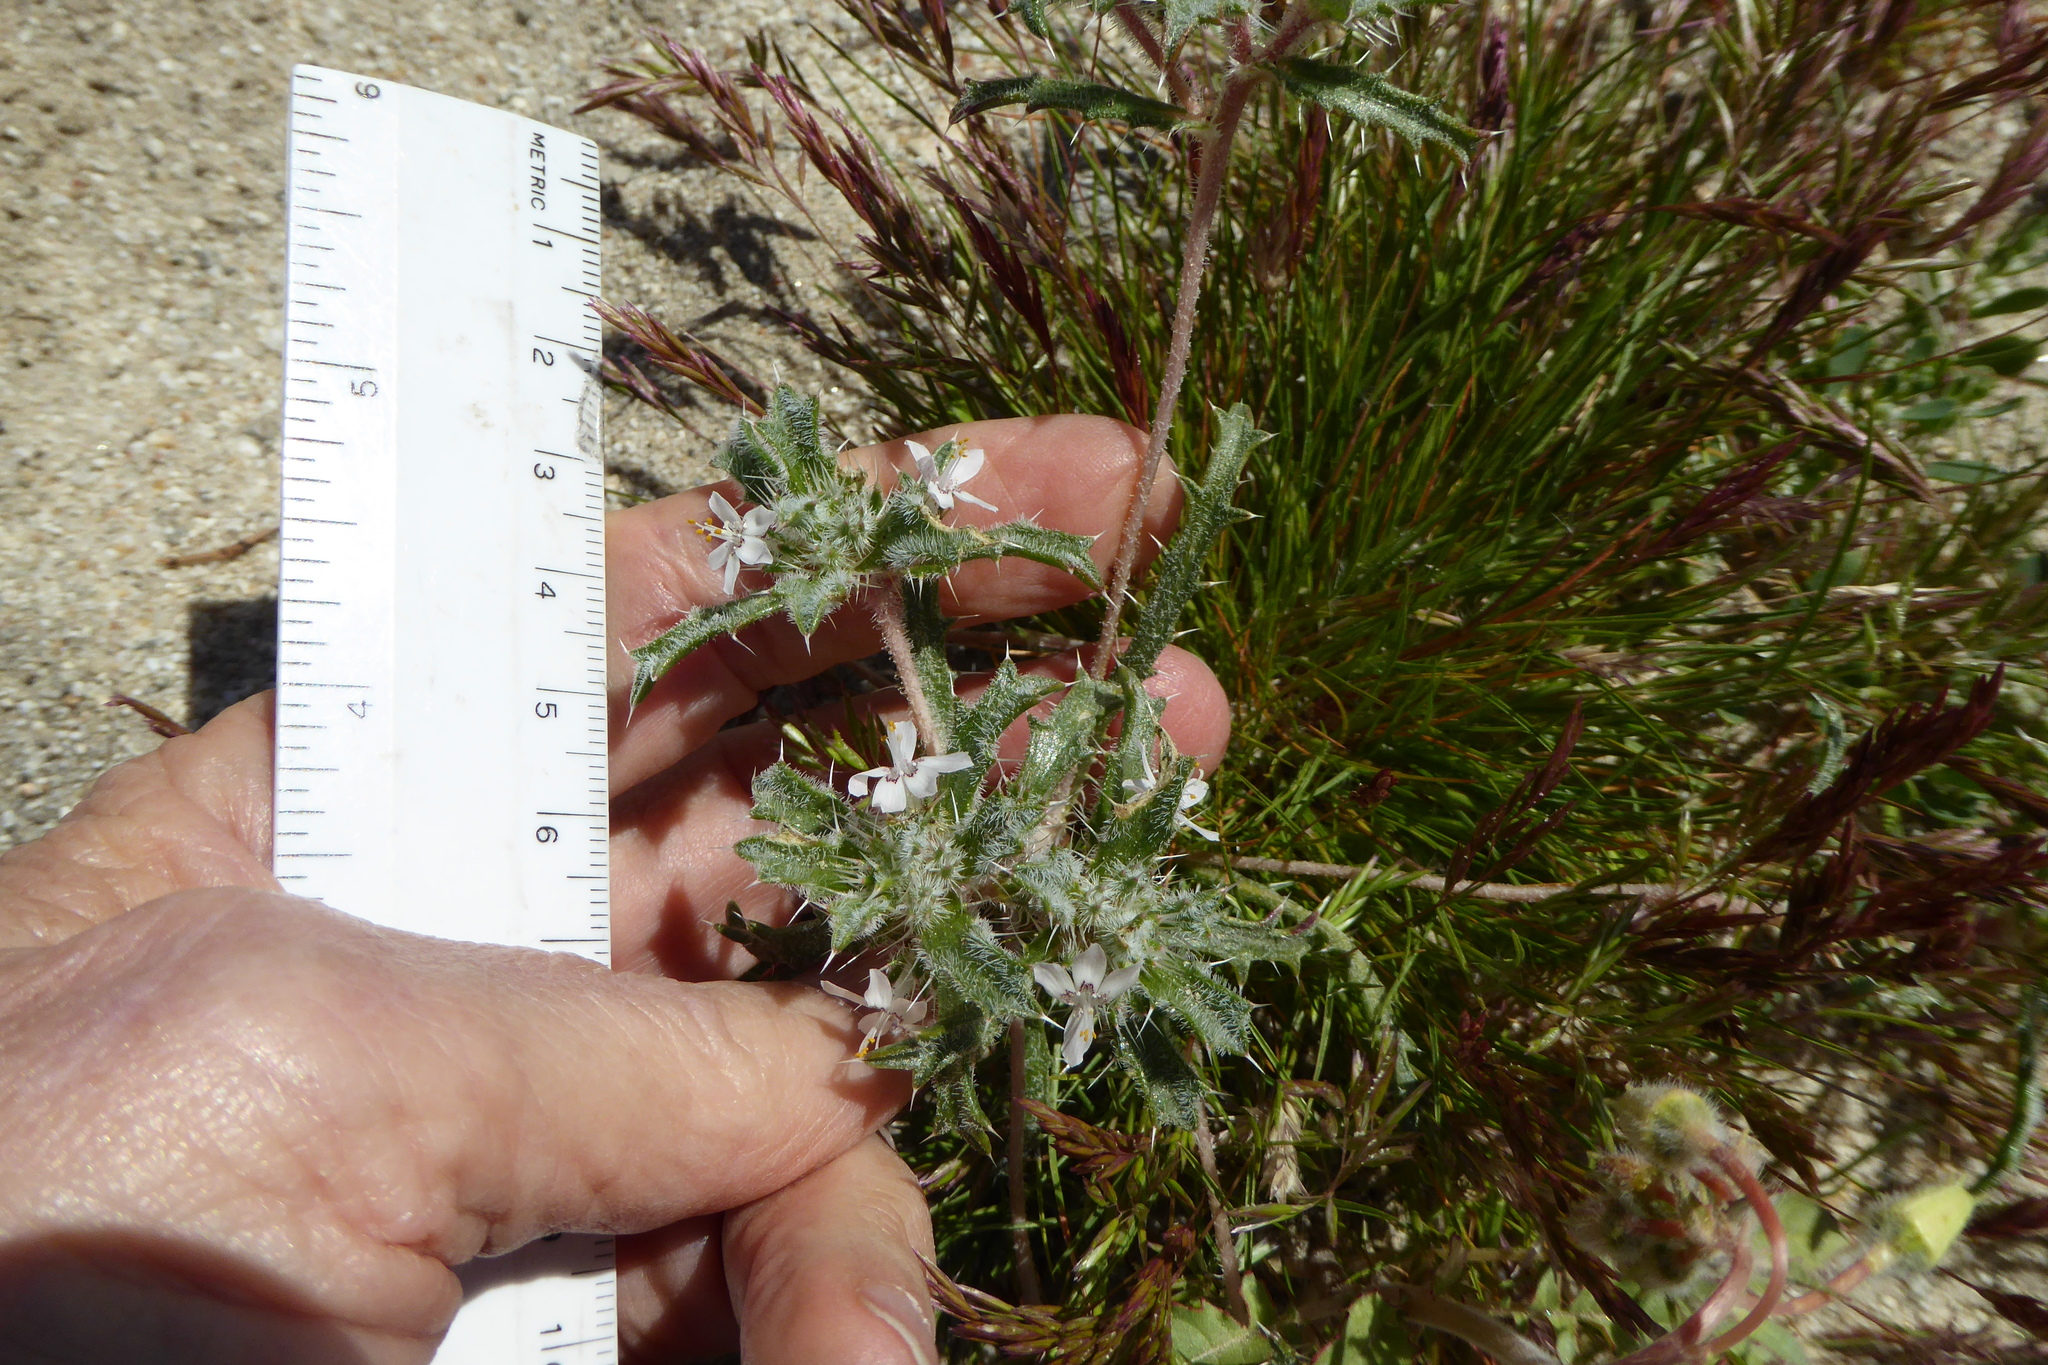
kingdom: Plantae
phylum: Tracheophyta
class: Magnoliopsida
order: Ericales
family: Polemoniaceae
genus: Loeseliastrum
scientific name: Loeseliastrum schottii
